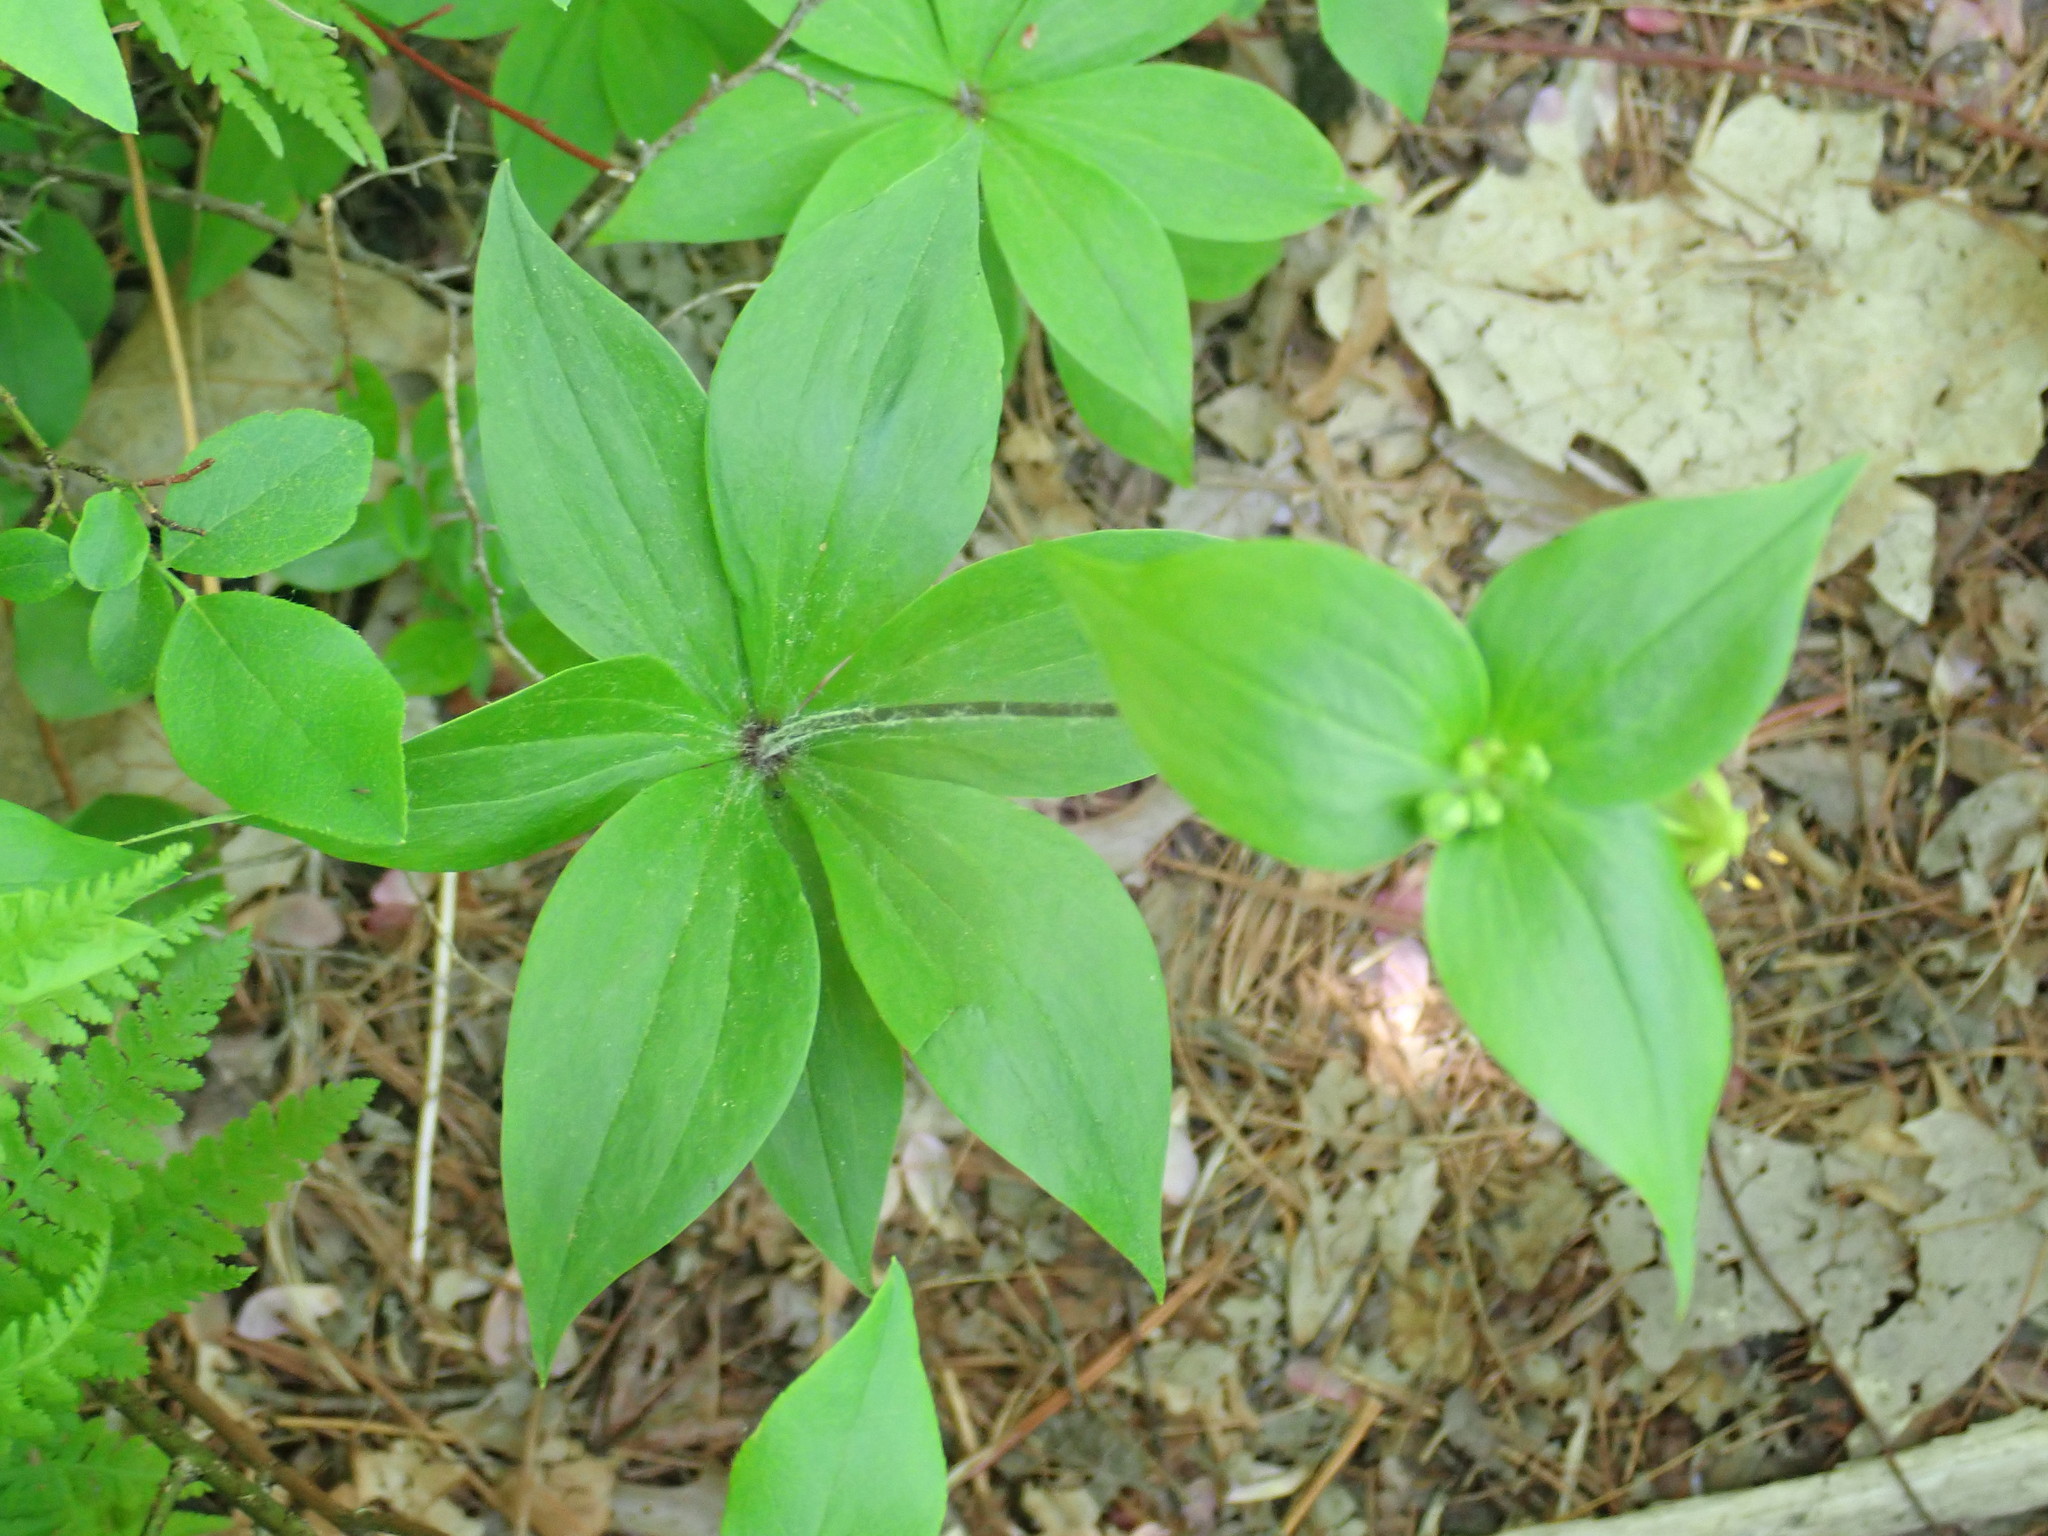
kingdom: Plantae
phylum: Tracheophyta
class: Liliopsida
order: Liliales
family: Liliaceae
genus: Medeola
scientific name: Medeola virginiana
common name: Indian cucumber-root
